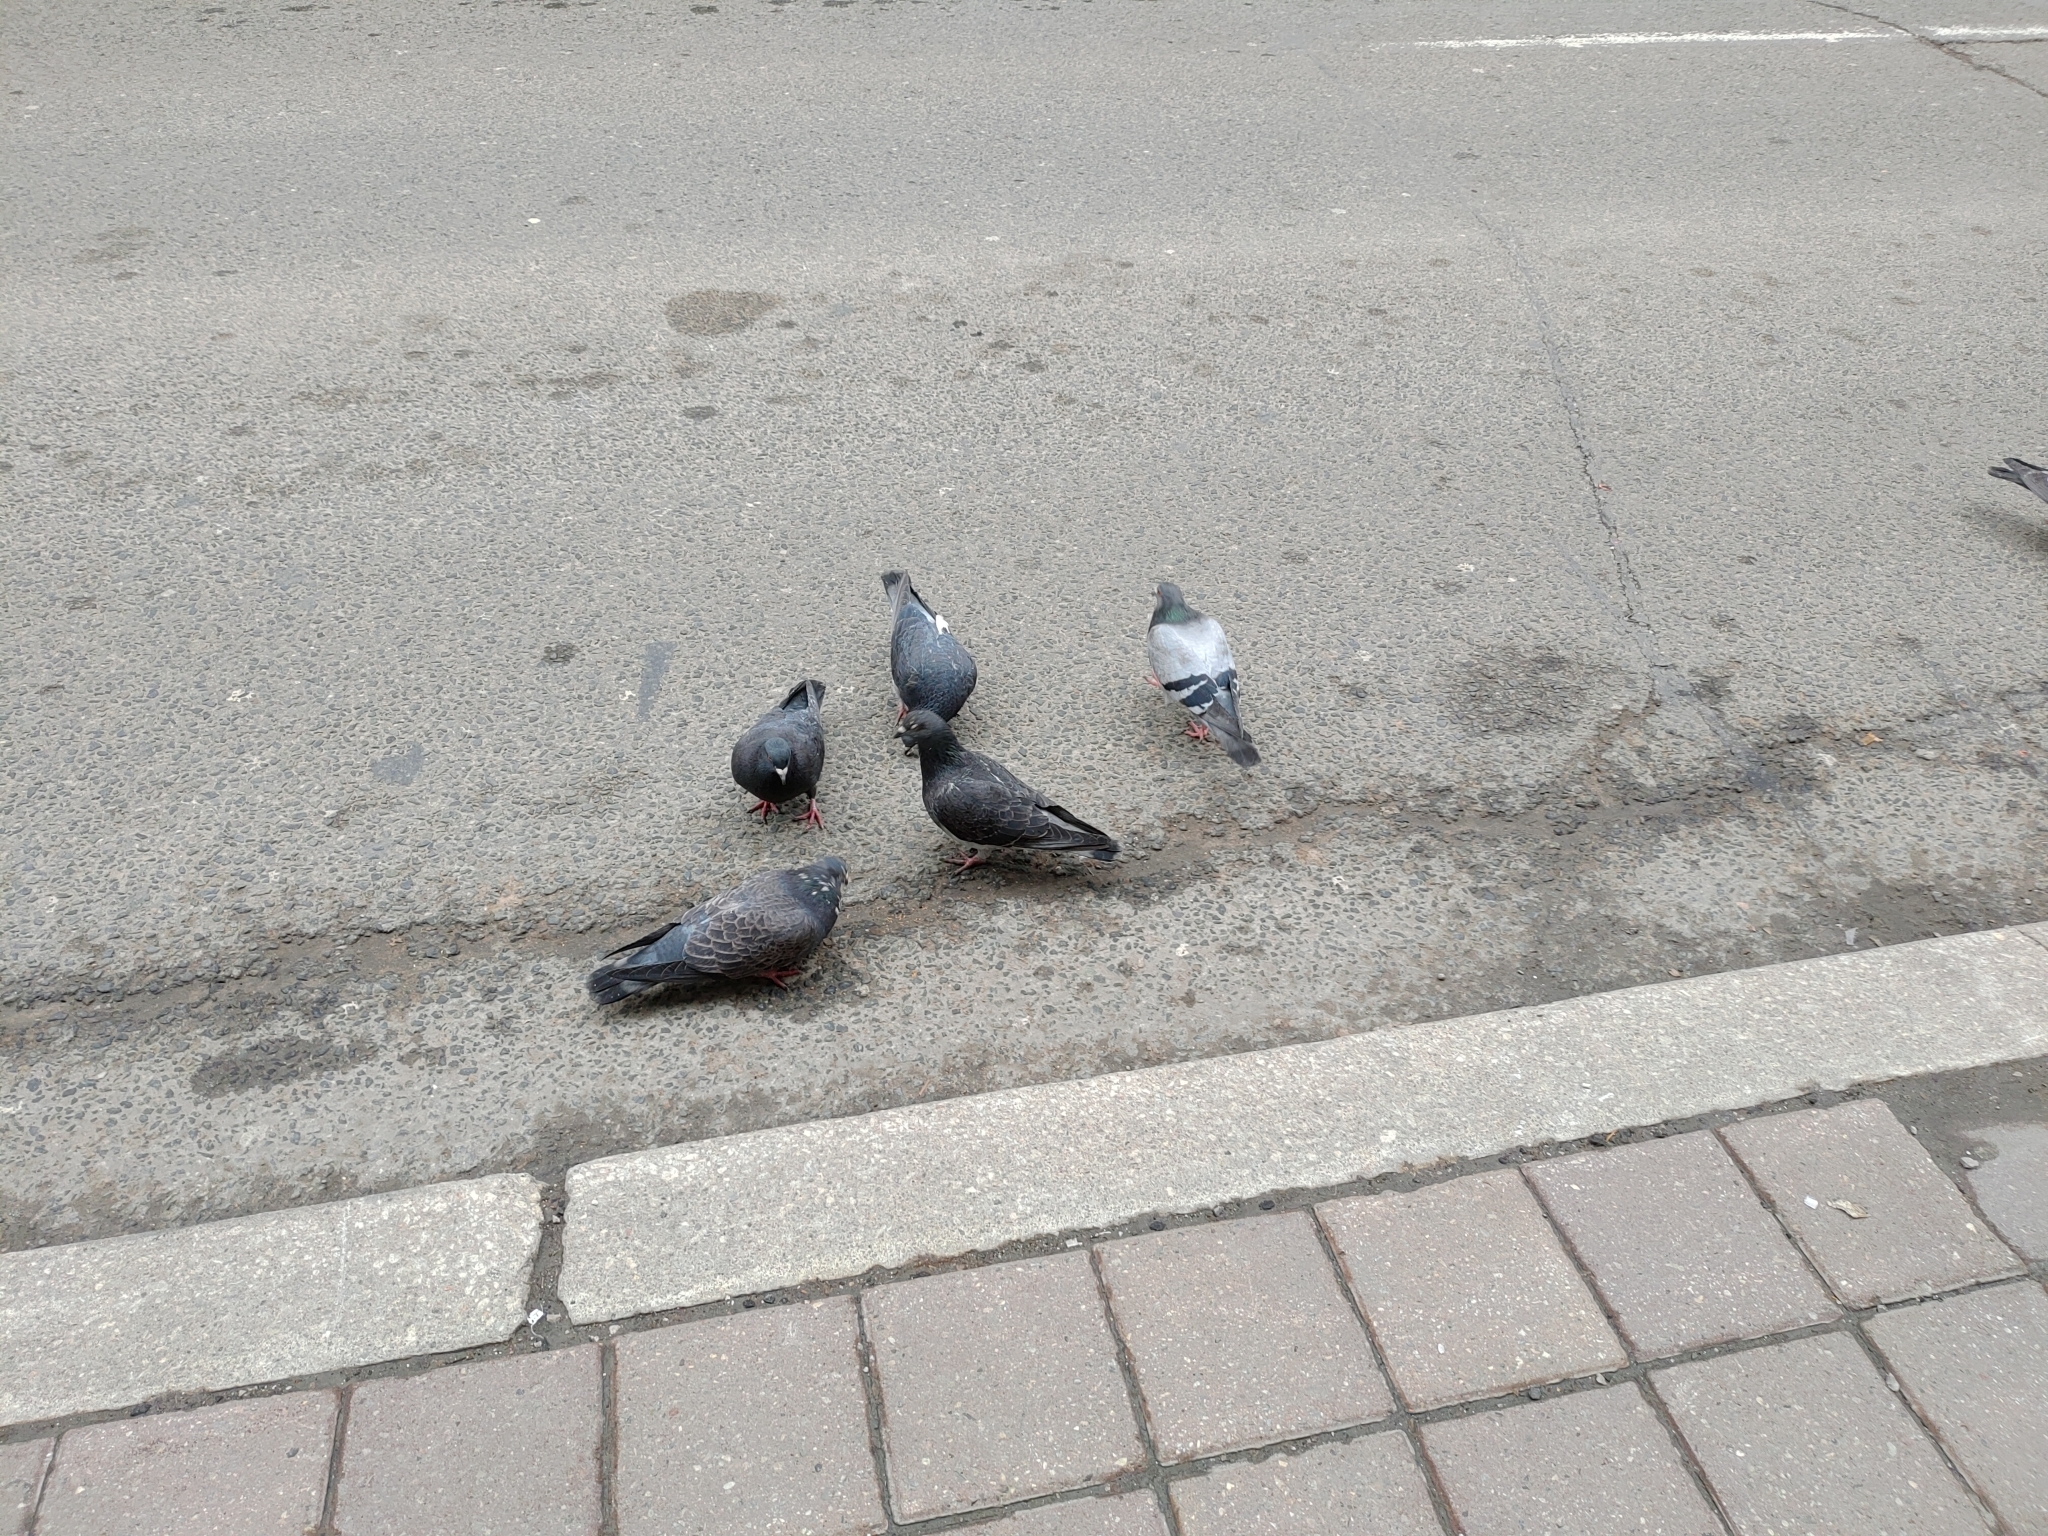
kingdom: Animalia
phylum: Chordata
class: Aves
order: Columbiformes
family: Columbidae
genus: Columba
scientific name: Columba livia
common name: Rock pigeon
